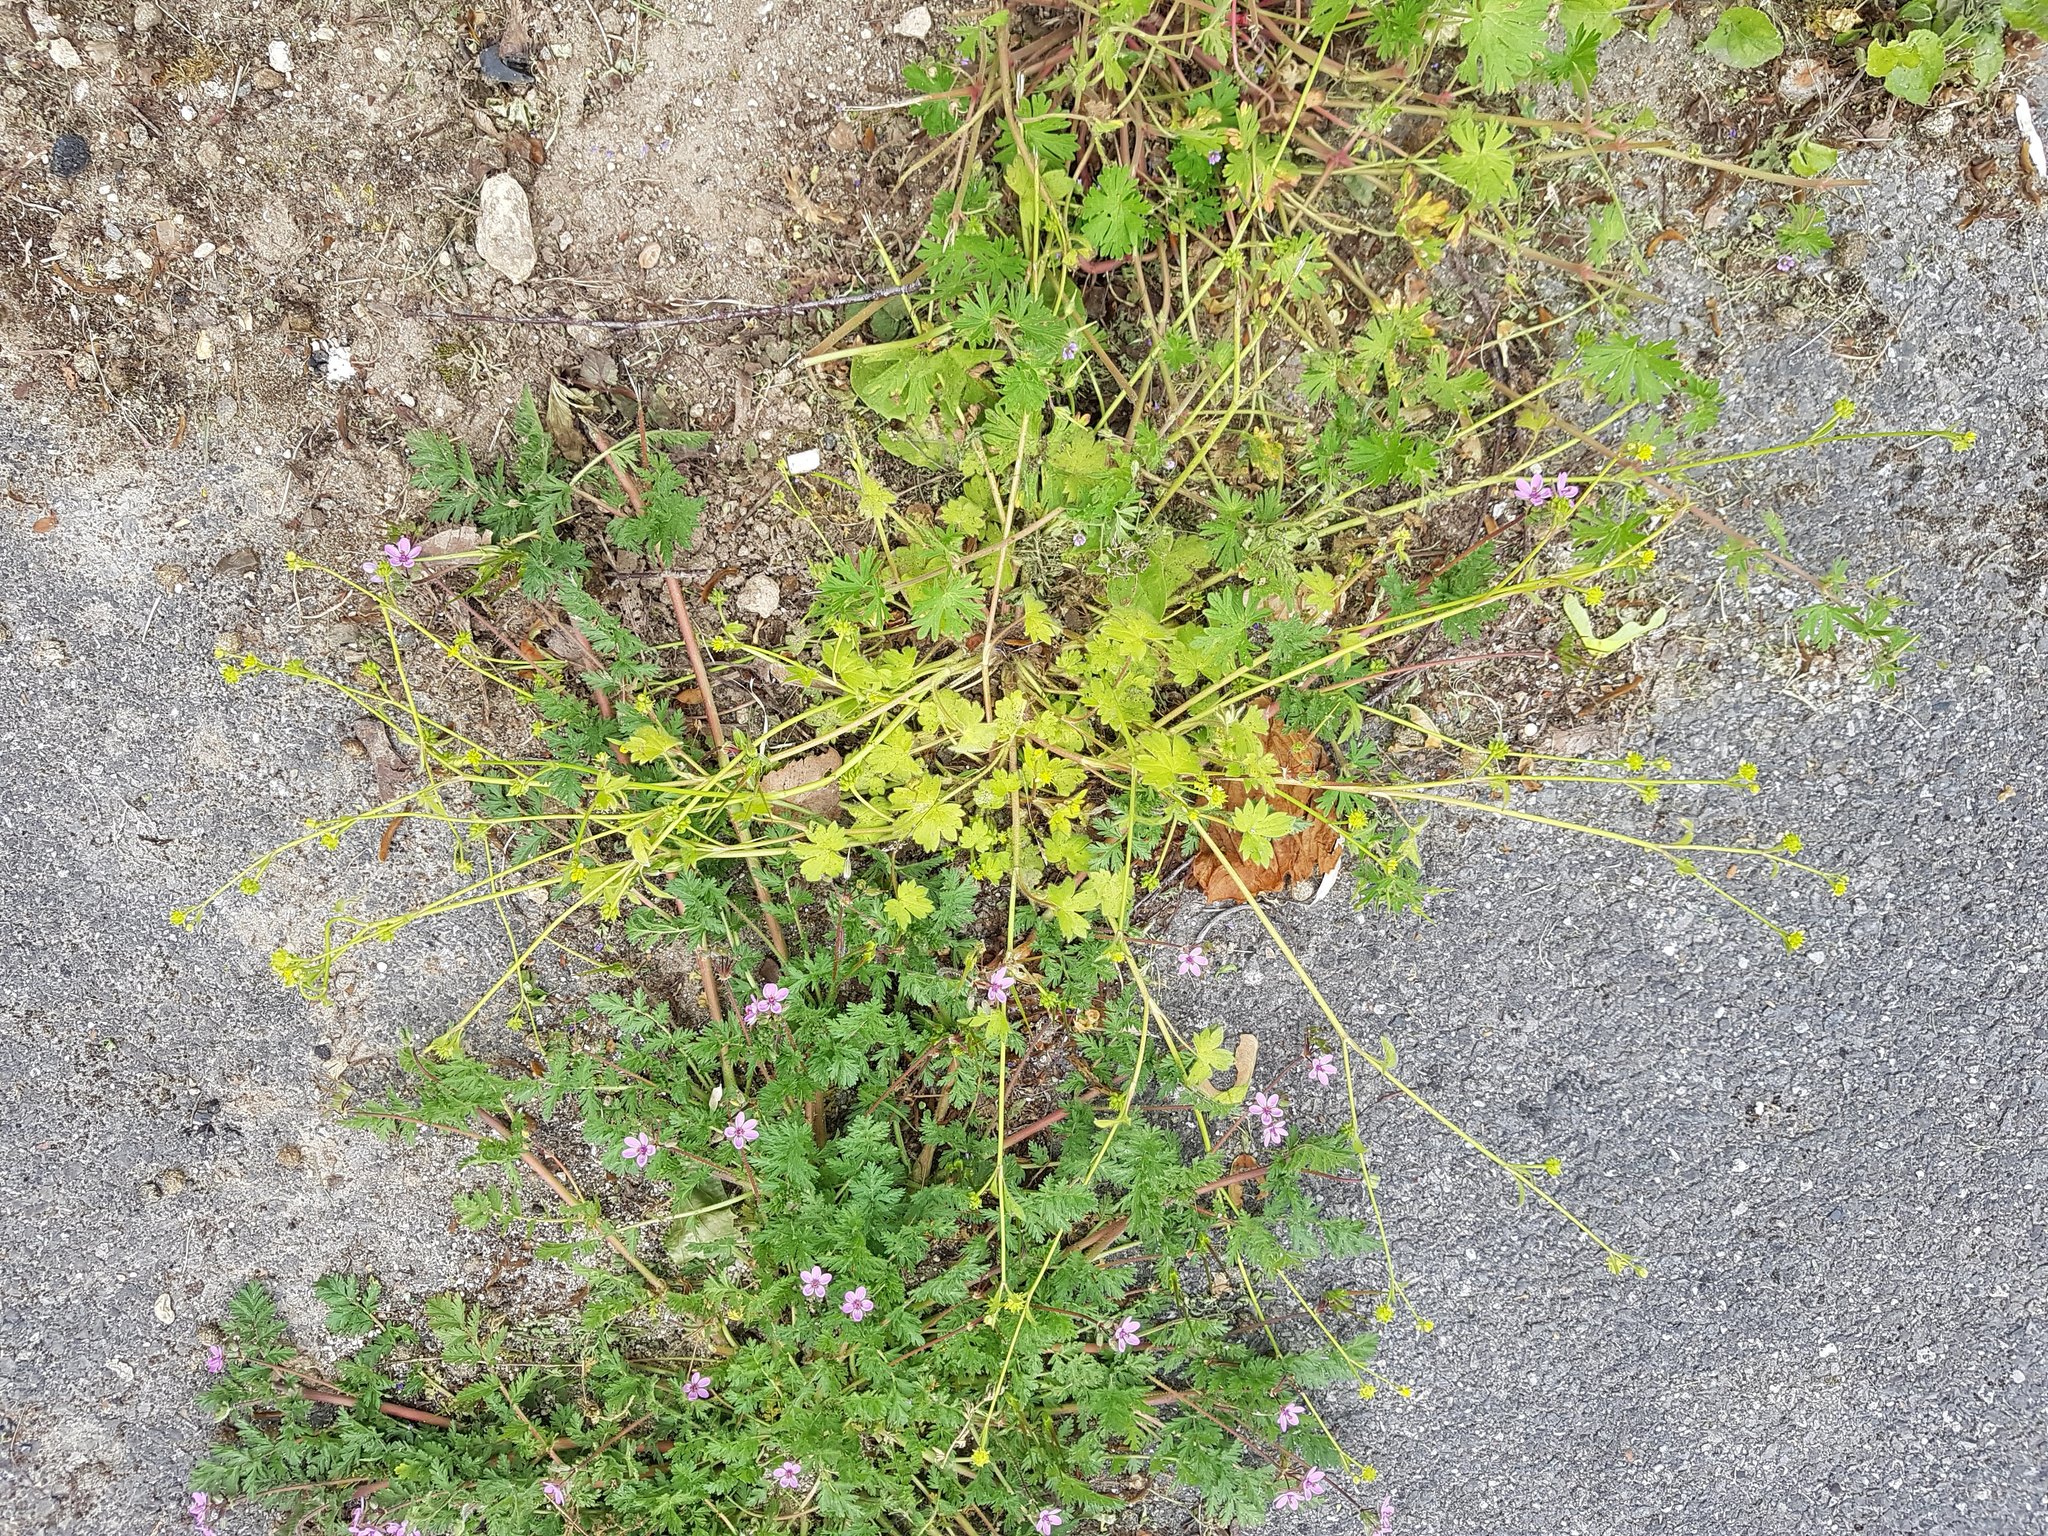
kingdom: Plantae
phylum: Tracheophyta
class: Magnoliopsida
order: Ranunculales
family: Ranunculaceae
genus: Ranunculus
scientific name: Ranunculus parviflorus
